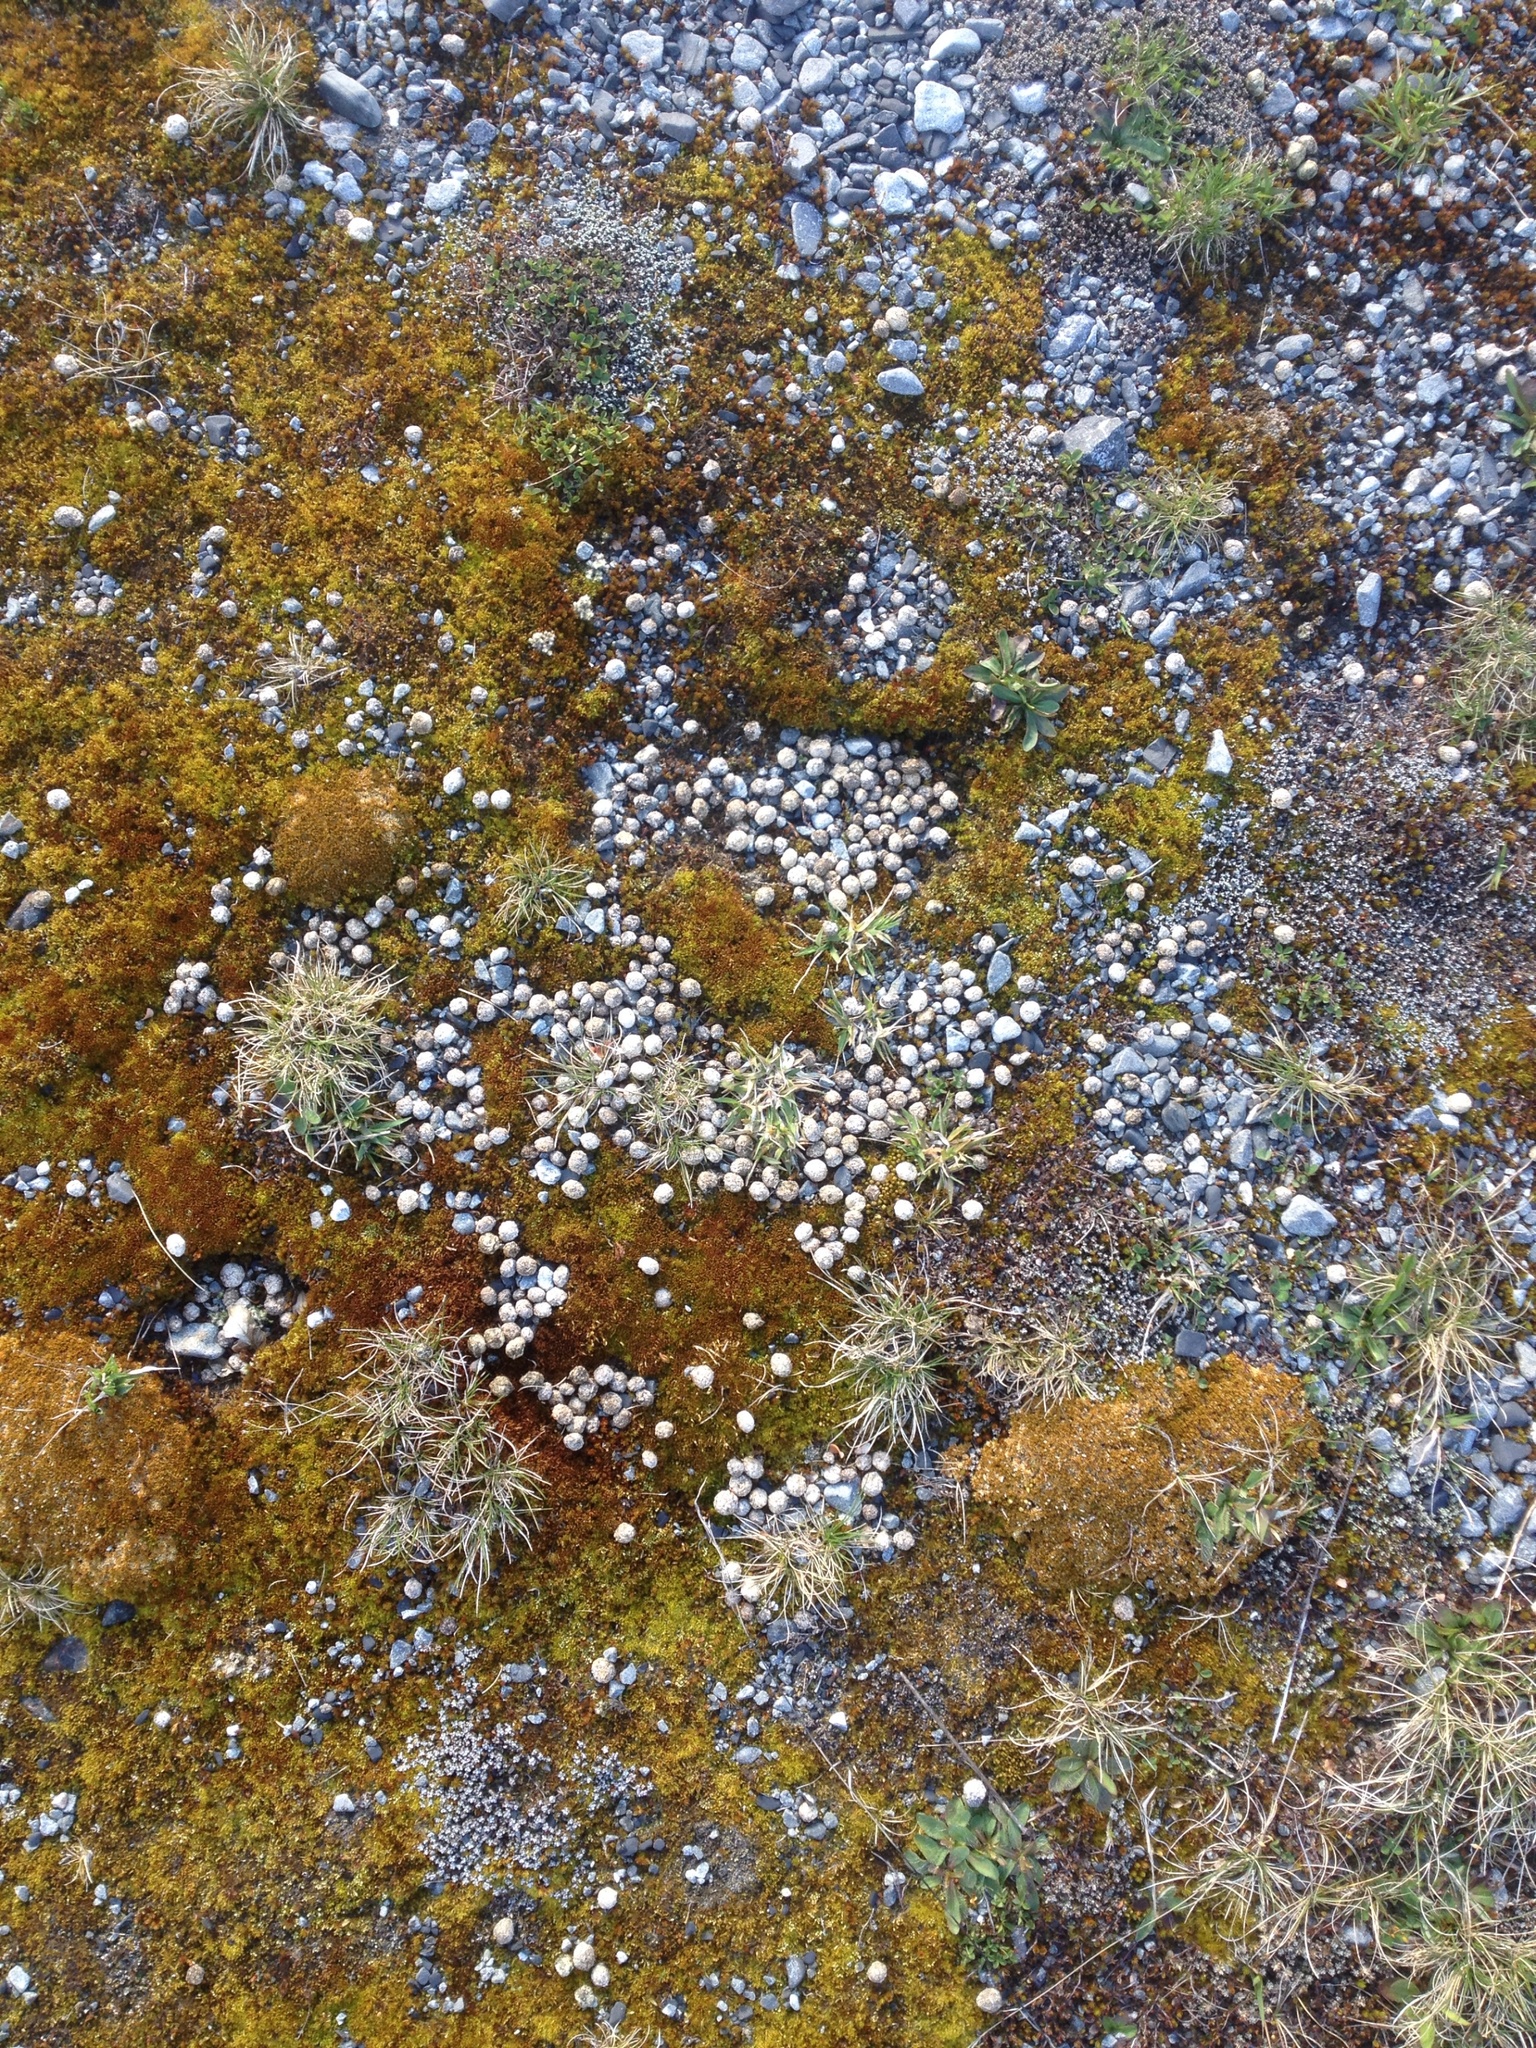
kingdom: Animalia
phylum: Chordata
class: Mammalia
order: Lagomorpha
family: Leporidae
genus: Oryctolagus
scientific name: Oryctolagus cuniculus
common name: European rabbit
